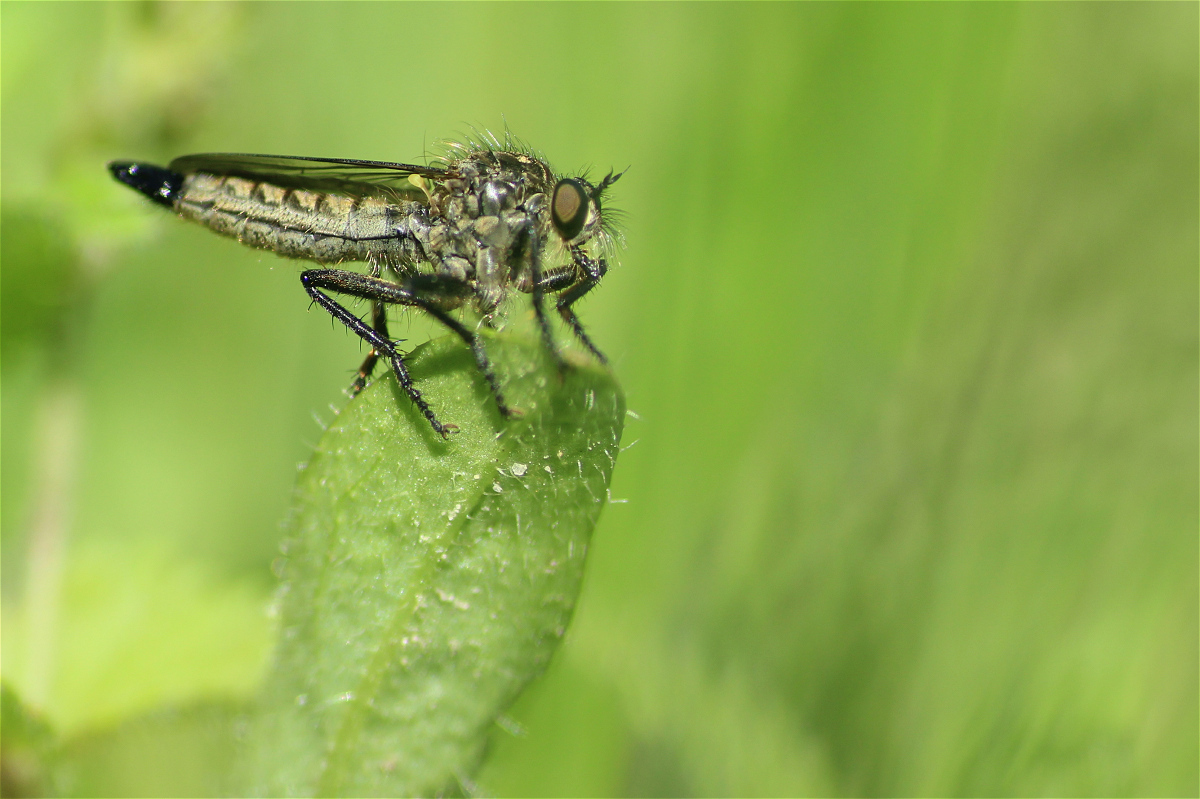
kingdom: Animalia
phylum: Arthropoda
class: Insecta
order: Diptera
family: Asilidae
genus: Didysmachus
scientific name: Didysmachus picipes
